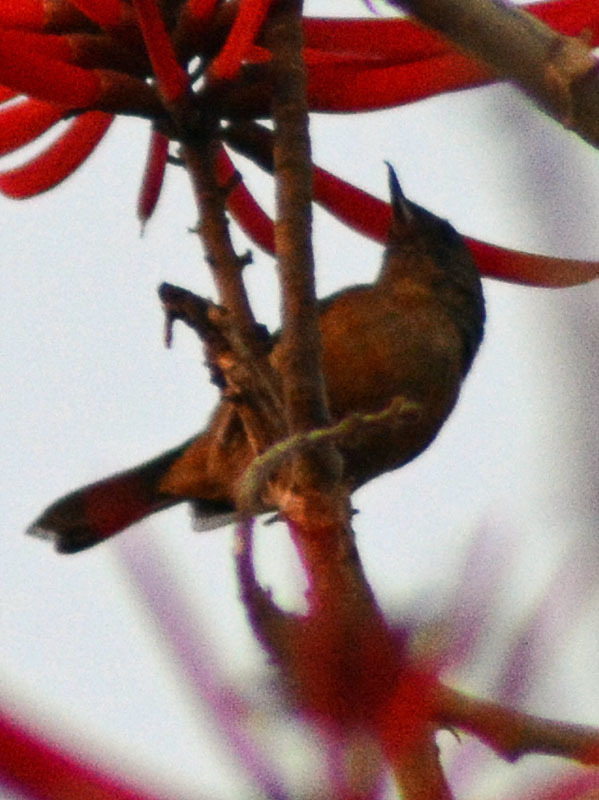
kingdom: Animalia
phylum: Chordata
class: Aves
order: Passeriformes
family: Thraupidae
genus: Diglossa
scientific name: Diglossa baritula
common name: Cinnamon-bellied flowerpiercer
